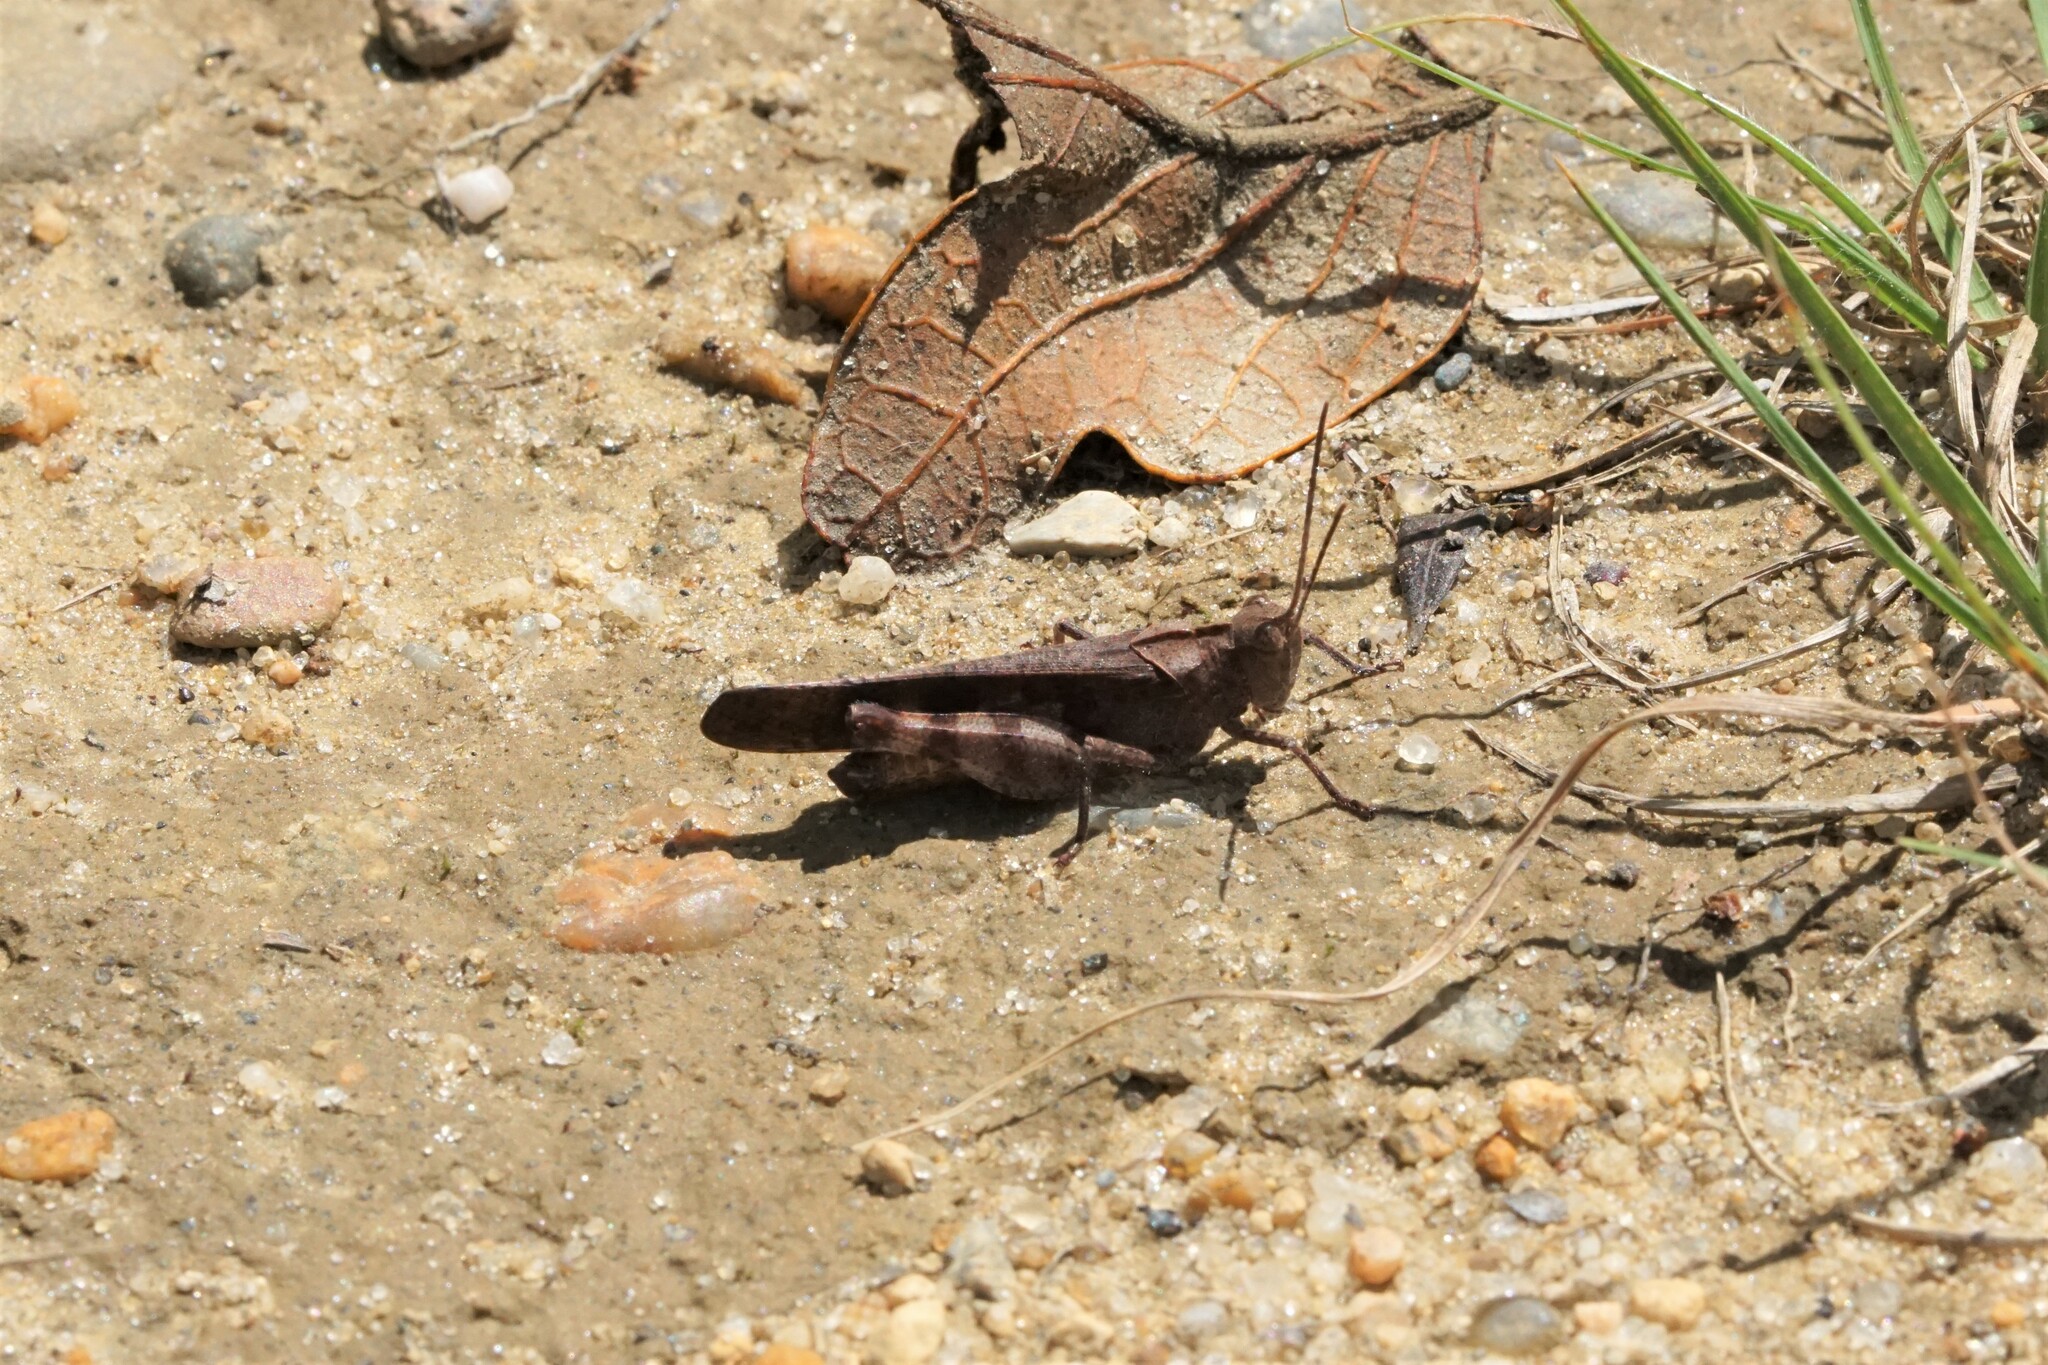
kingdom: Animalia
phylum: Arthropoda
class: Insecta
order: Orthoptera
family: Acrididae
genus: Spharagemon
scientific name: Spharagemon bolli
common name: Boll's grasshopper
